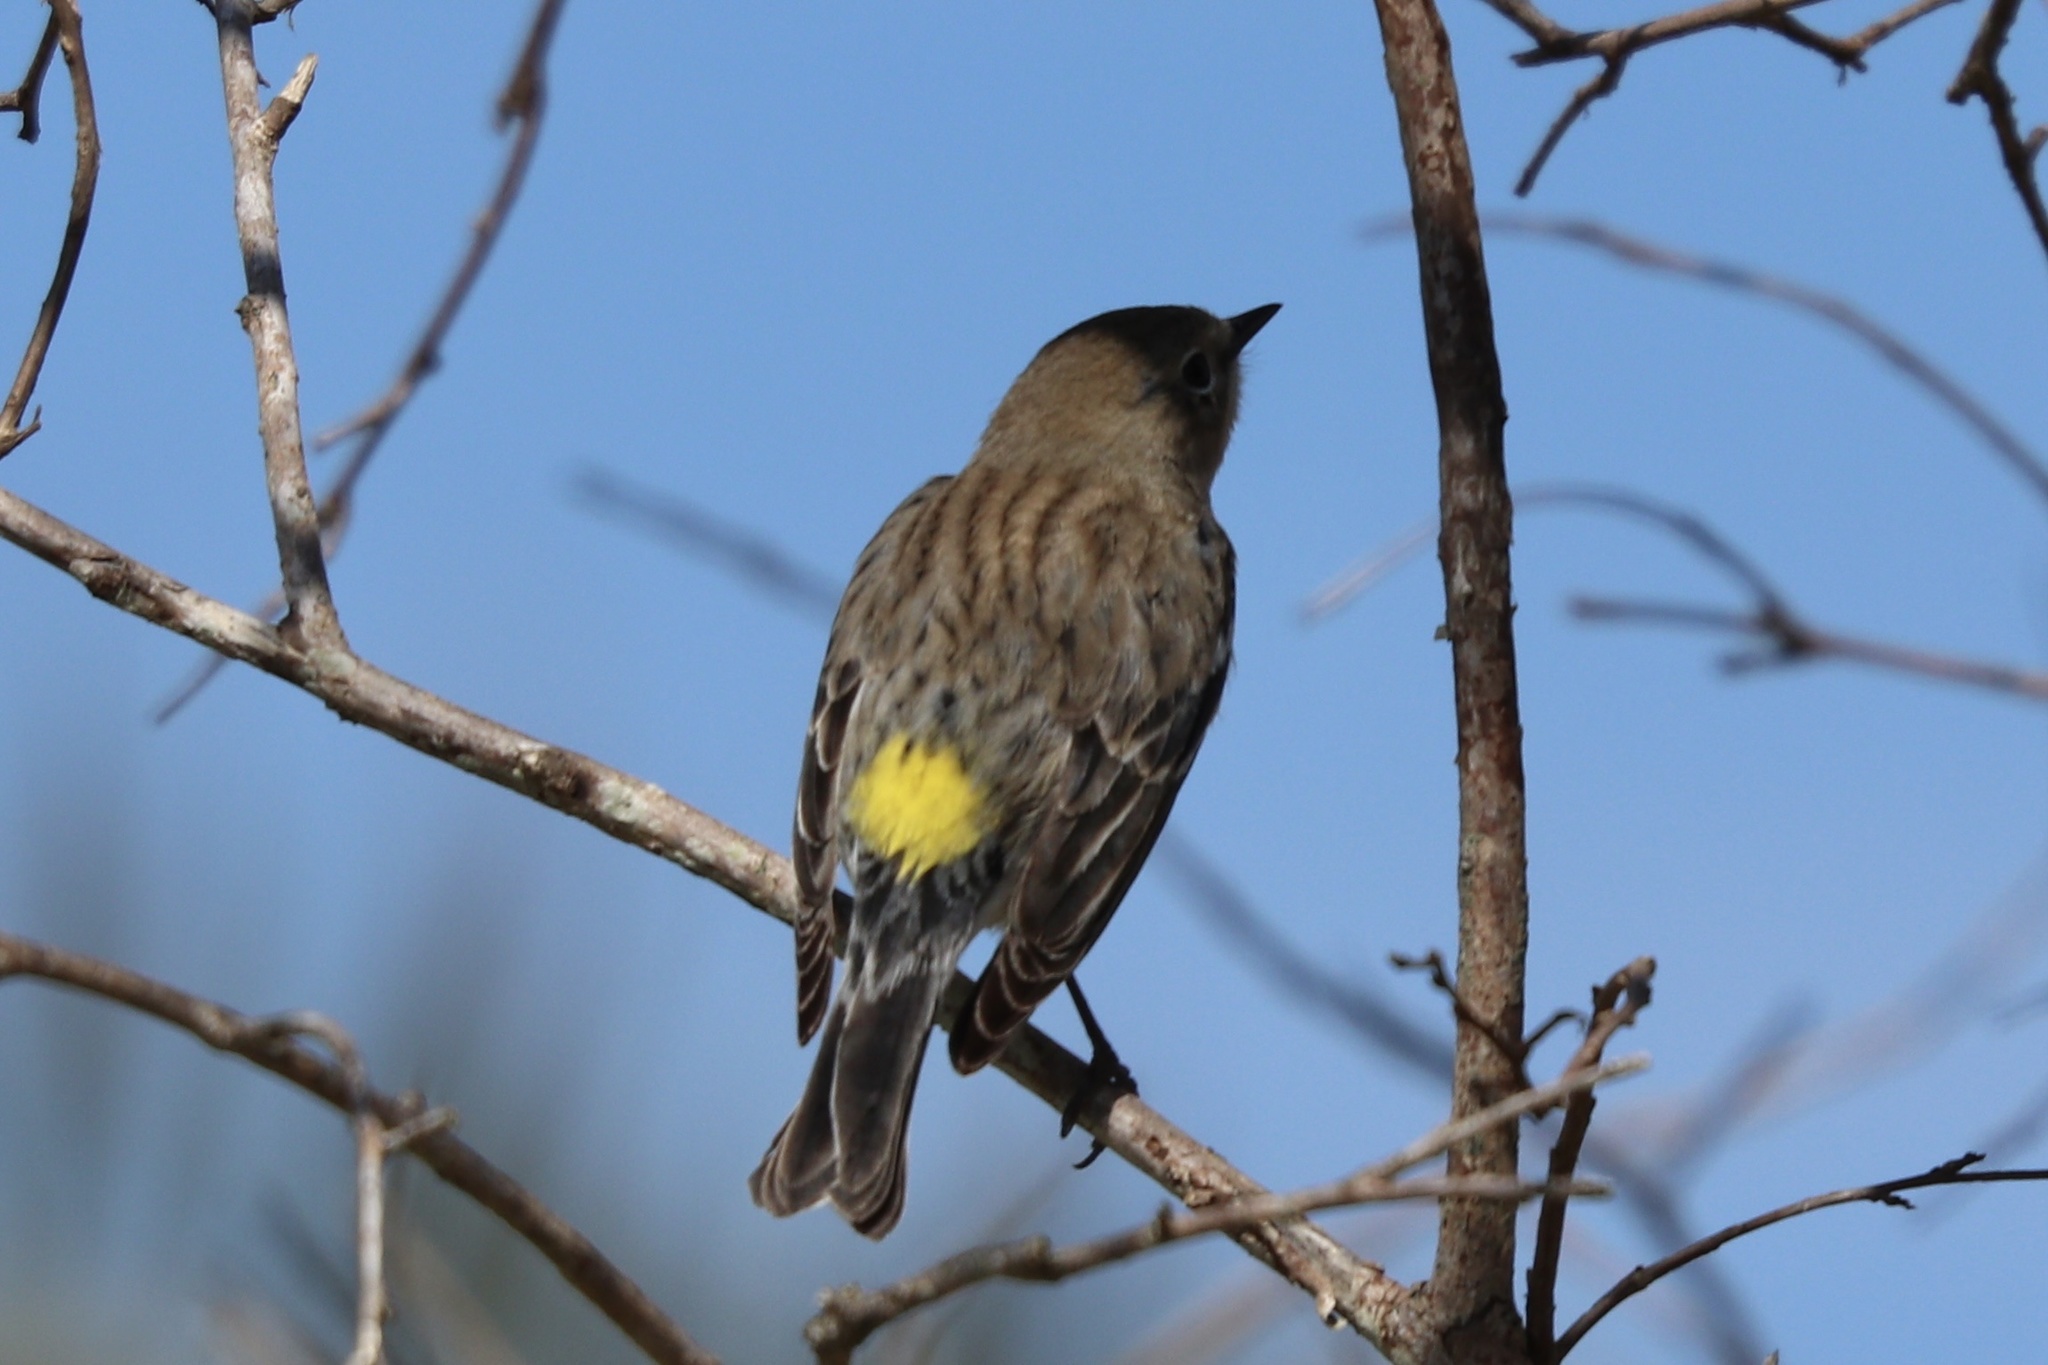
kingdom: Animalia
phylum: Chordata
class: Aves
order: Passeriformes
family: Parulidae
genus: Setophaga
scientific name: Setophaga coronata
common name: Myrtle warbler
